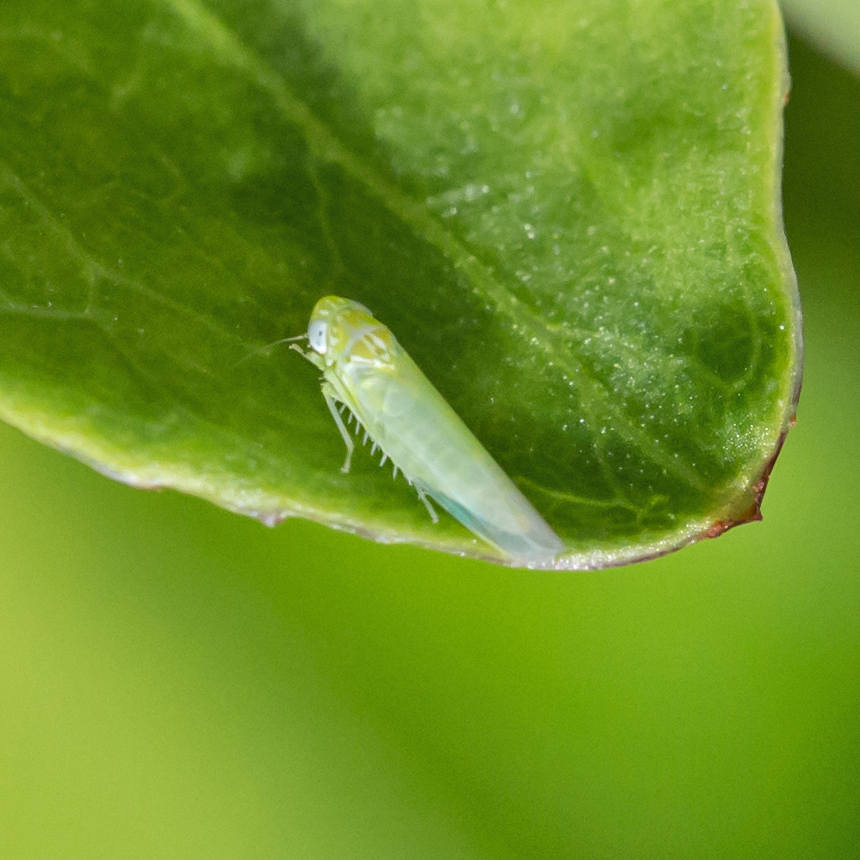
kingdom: Animalia
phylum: Arthropoda
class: Insecta
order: Hemiptera
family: Cicadellidae
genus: Empoasca
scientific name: Empoasca fabae
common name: Potato leafhopper
